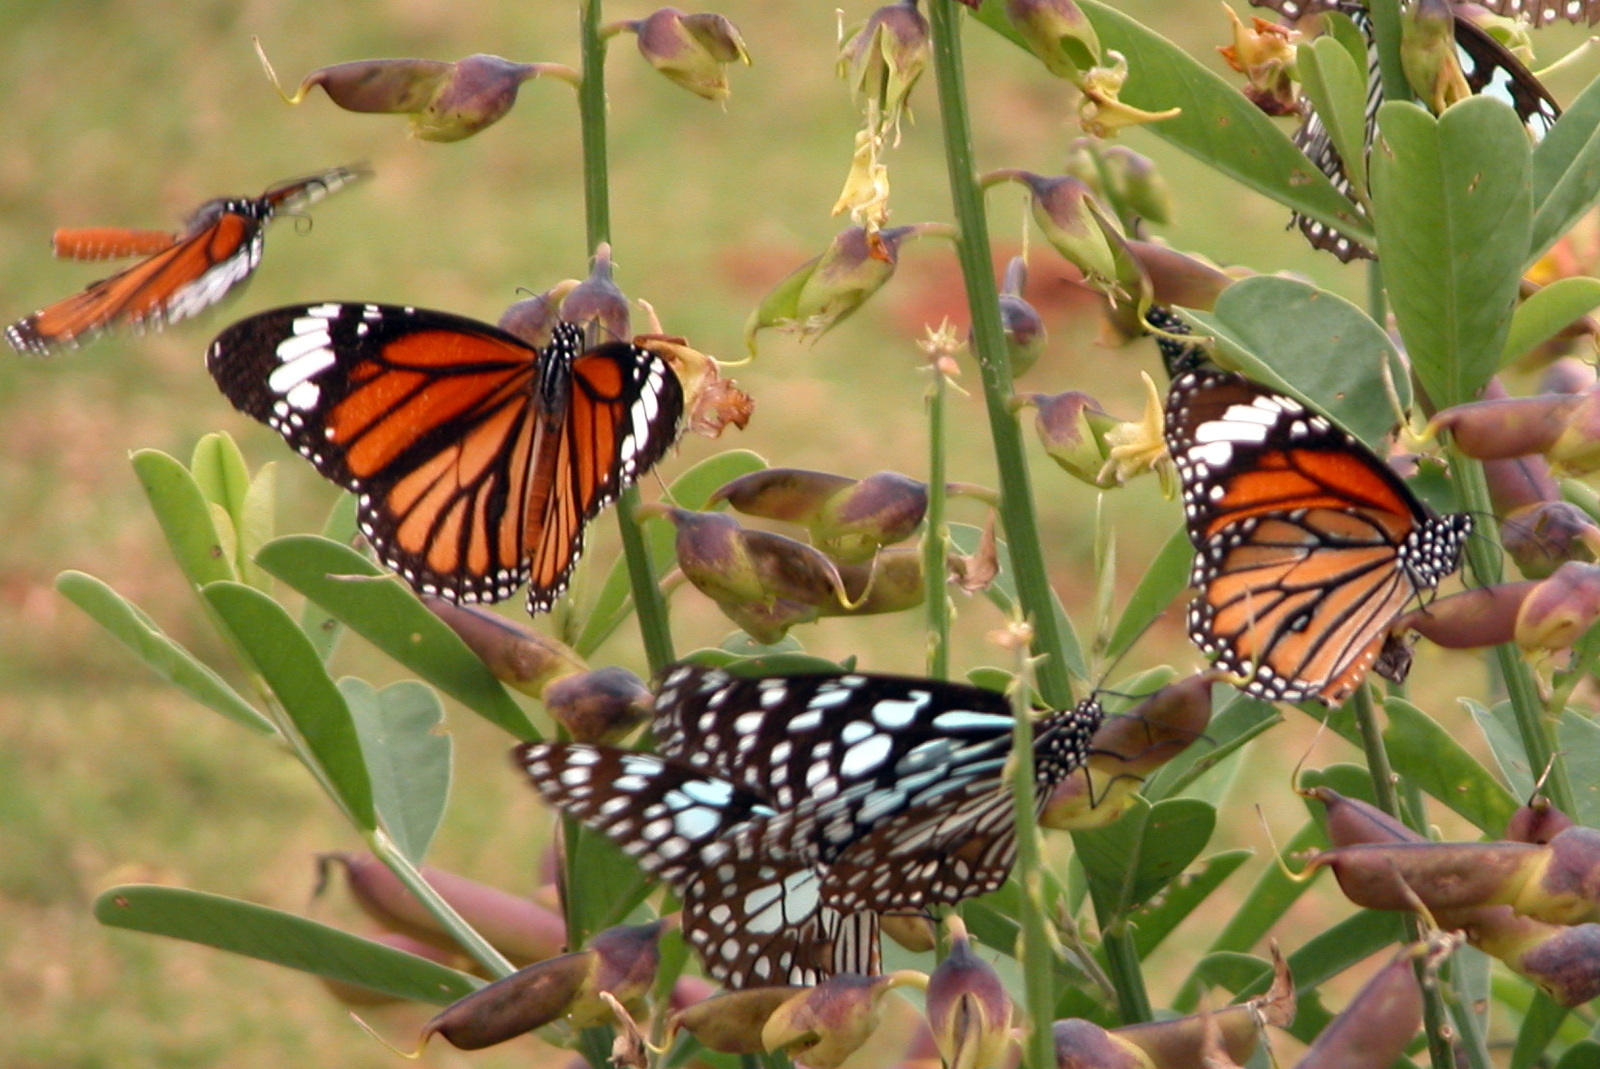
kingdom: Animalia
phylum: Arthropoda
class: Insecta
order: Lepidoptera
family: Nymphalidae
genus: Danaus
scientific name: Danaus genutia
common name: Common tiger butterfly
